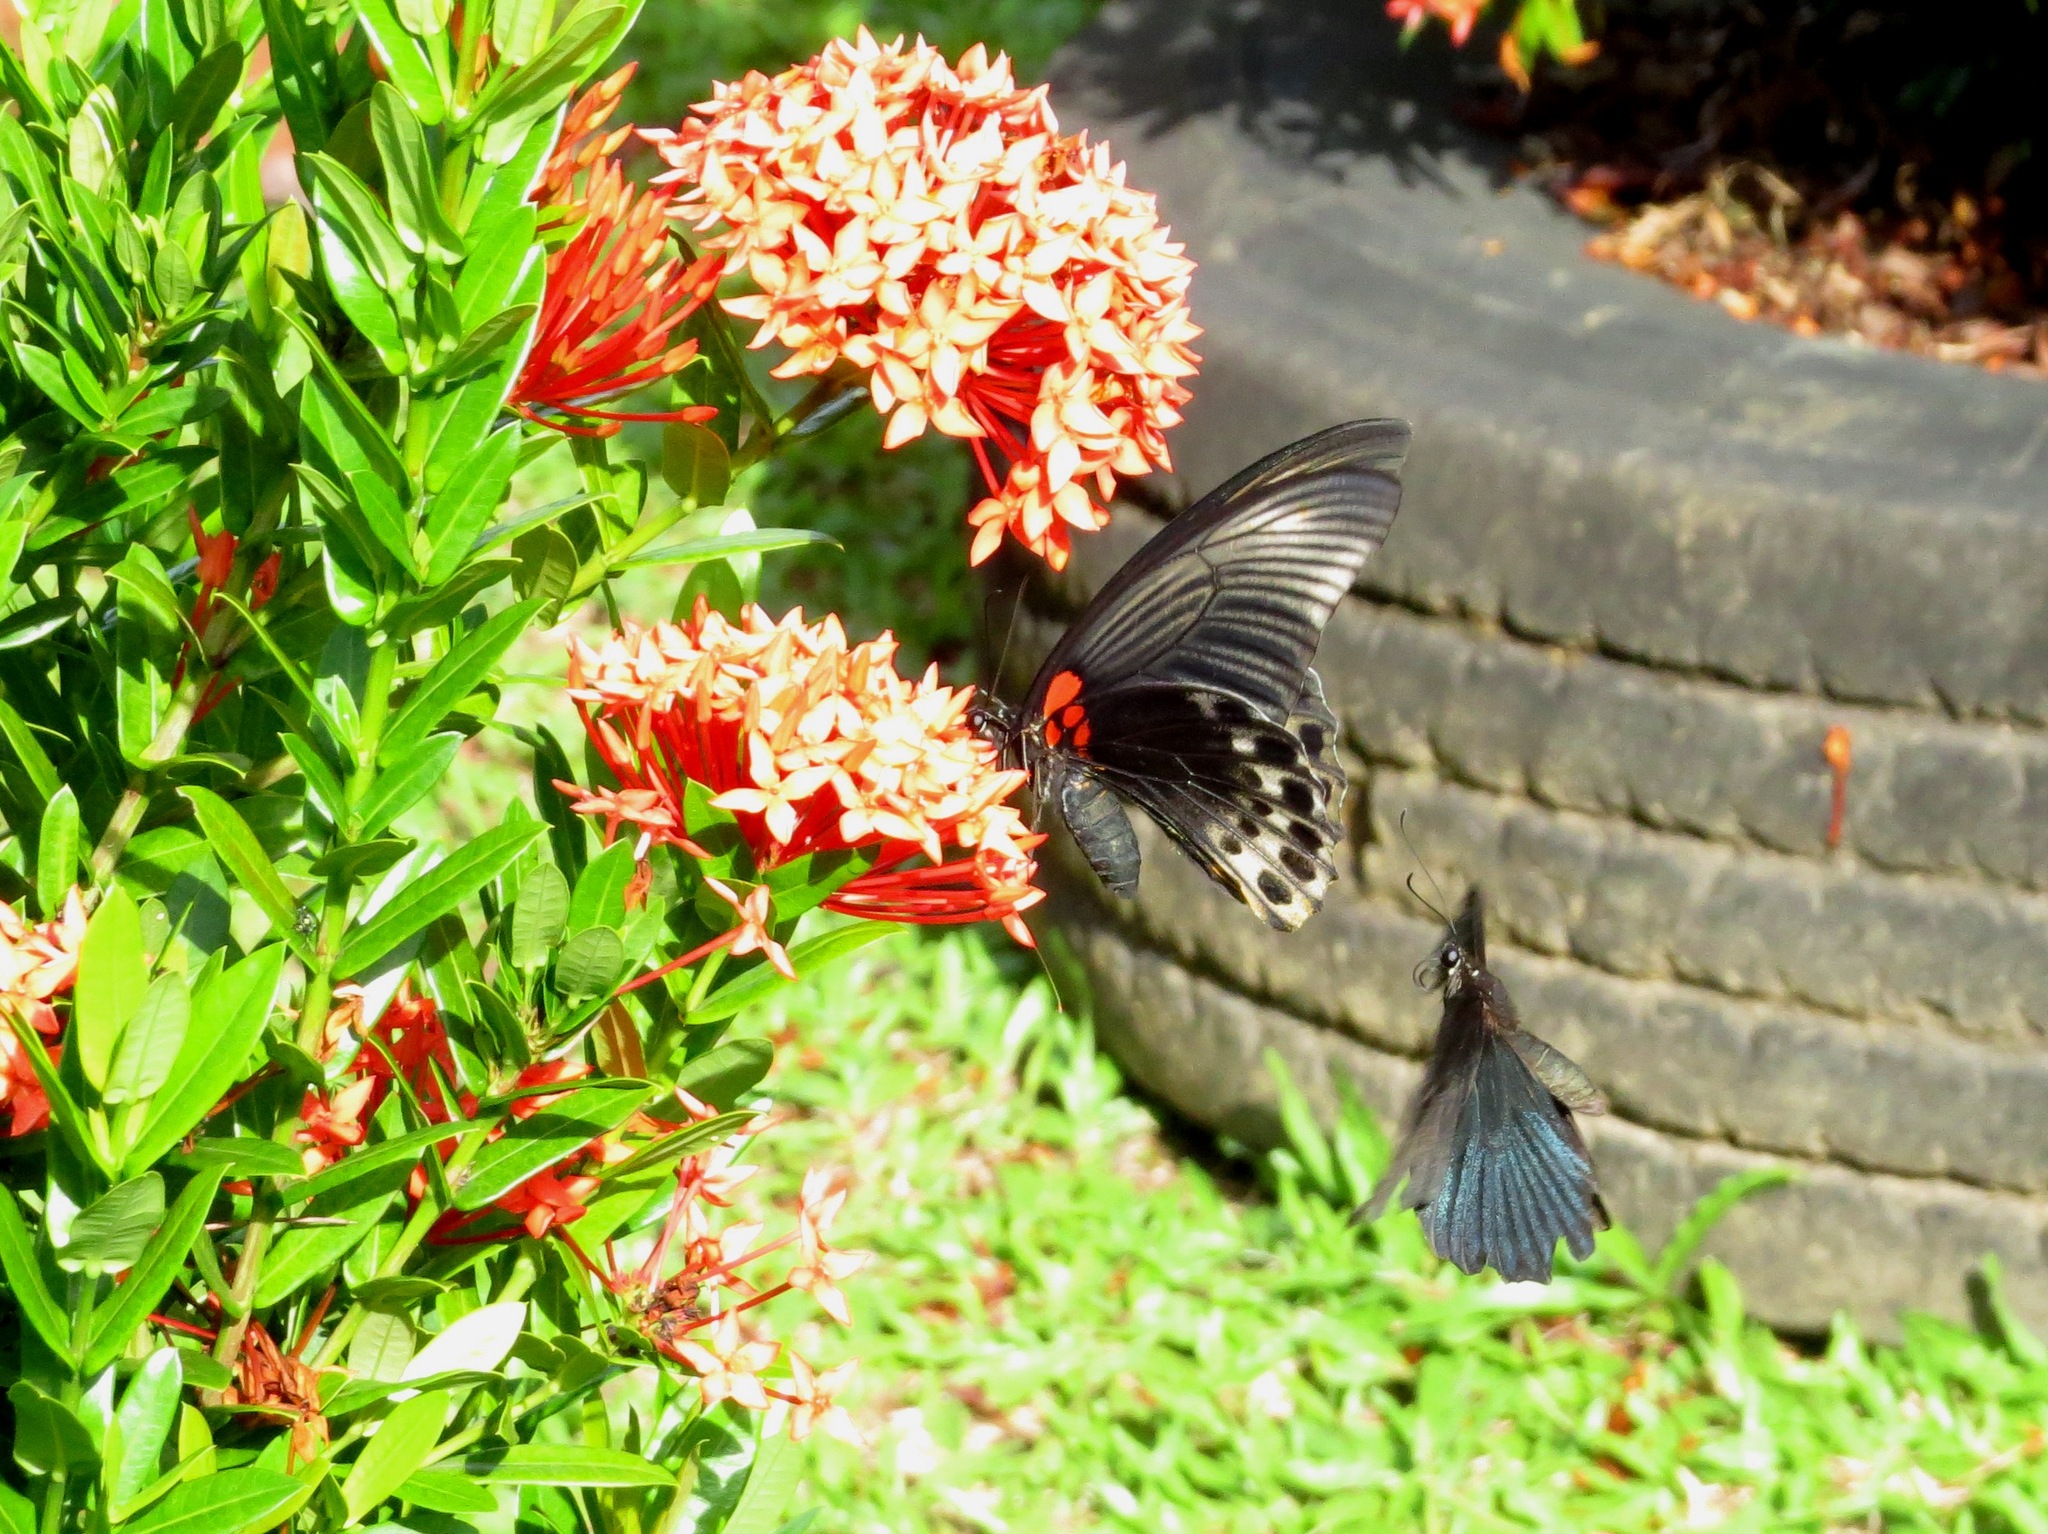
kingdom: Animalia
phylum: Arthropoda
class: Insecta
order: Lepidoptera
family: Papilionidae
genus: Papilio
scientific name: Papilio memnon
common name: Great mormon
